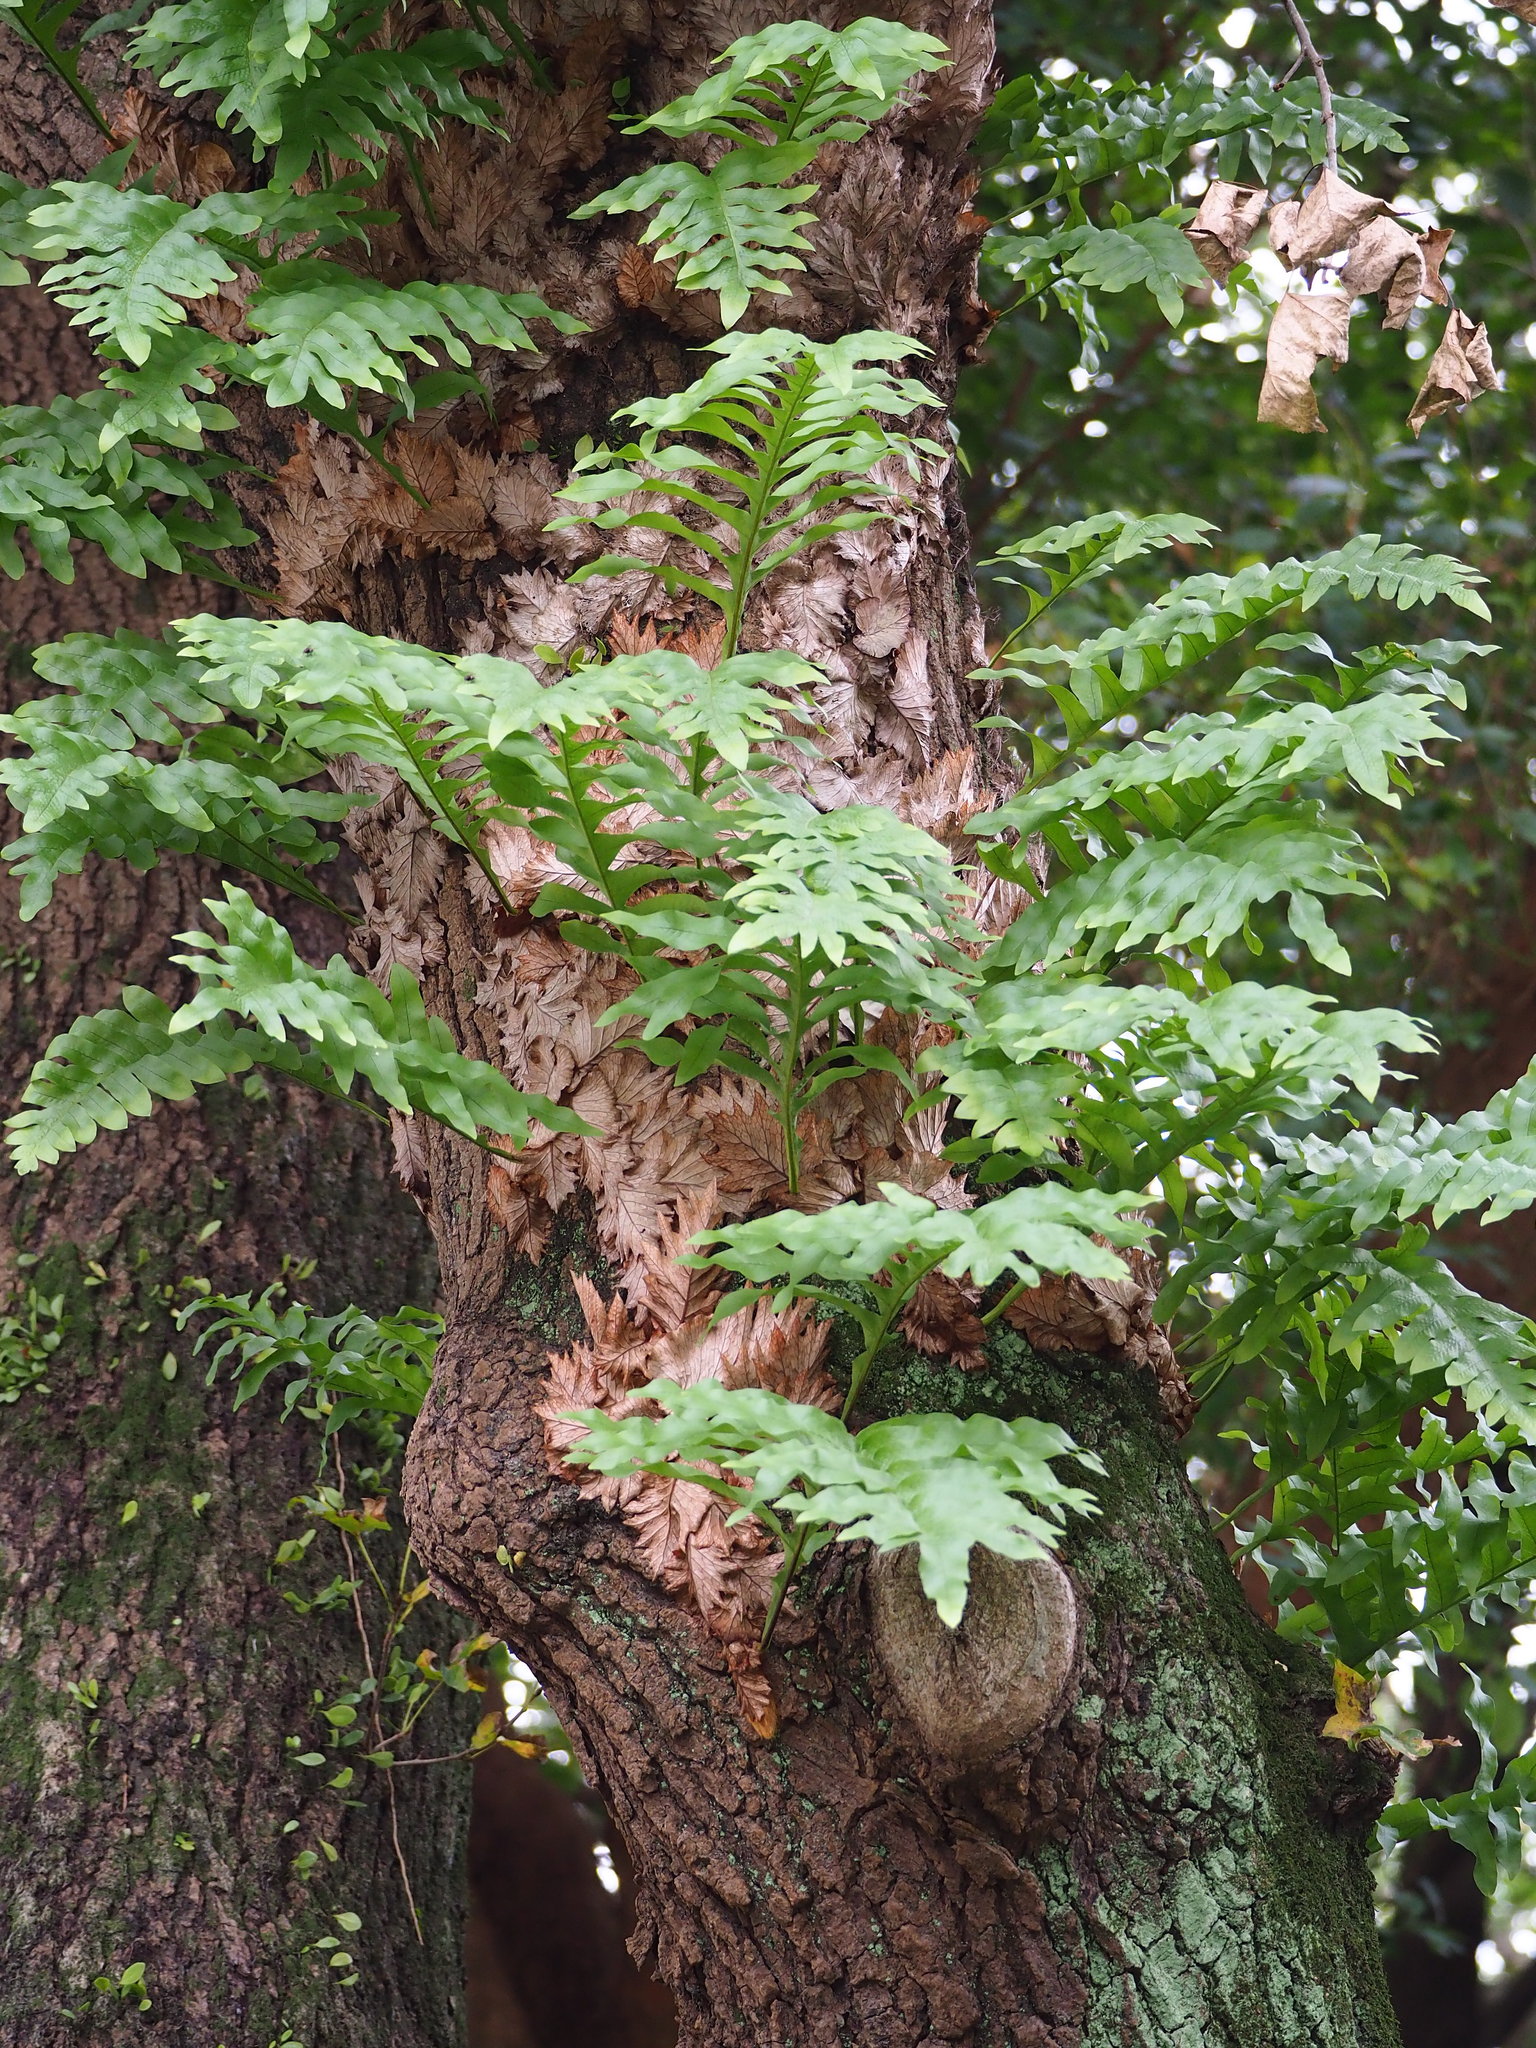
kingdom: Plantae
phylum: Tracheophyta
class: Polypodiopsida
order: Polypodiales
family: Polypodiaceae
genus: Drynaria
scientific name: Drynaria roosii
